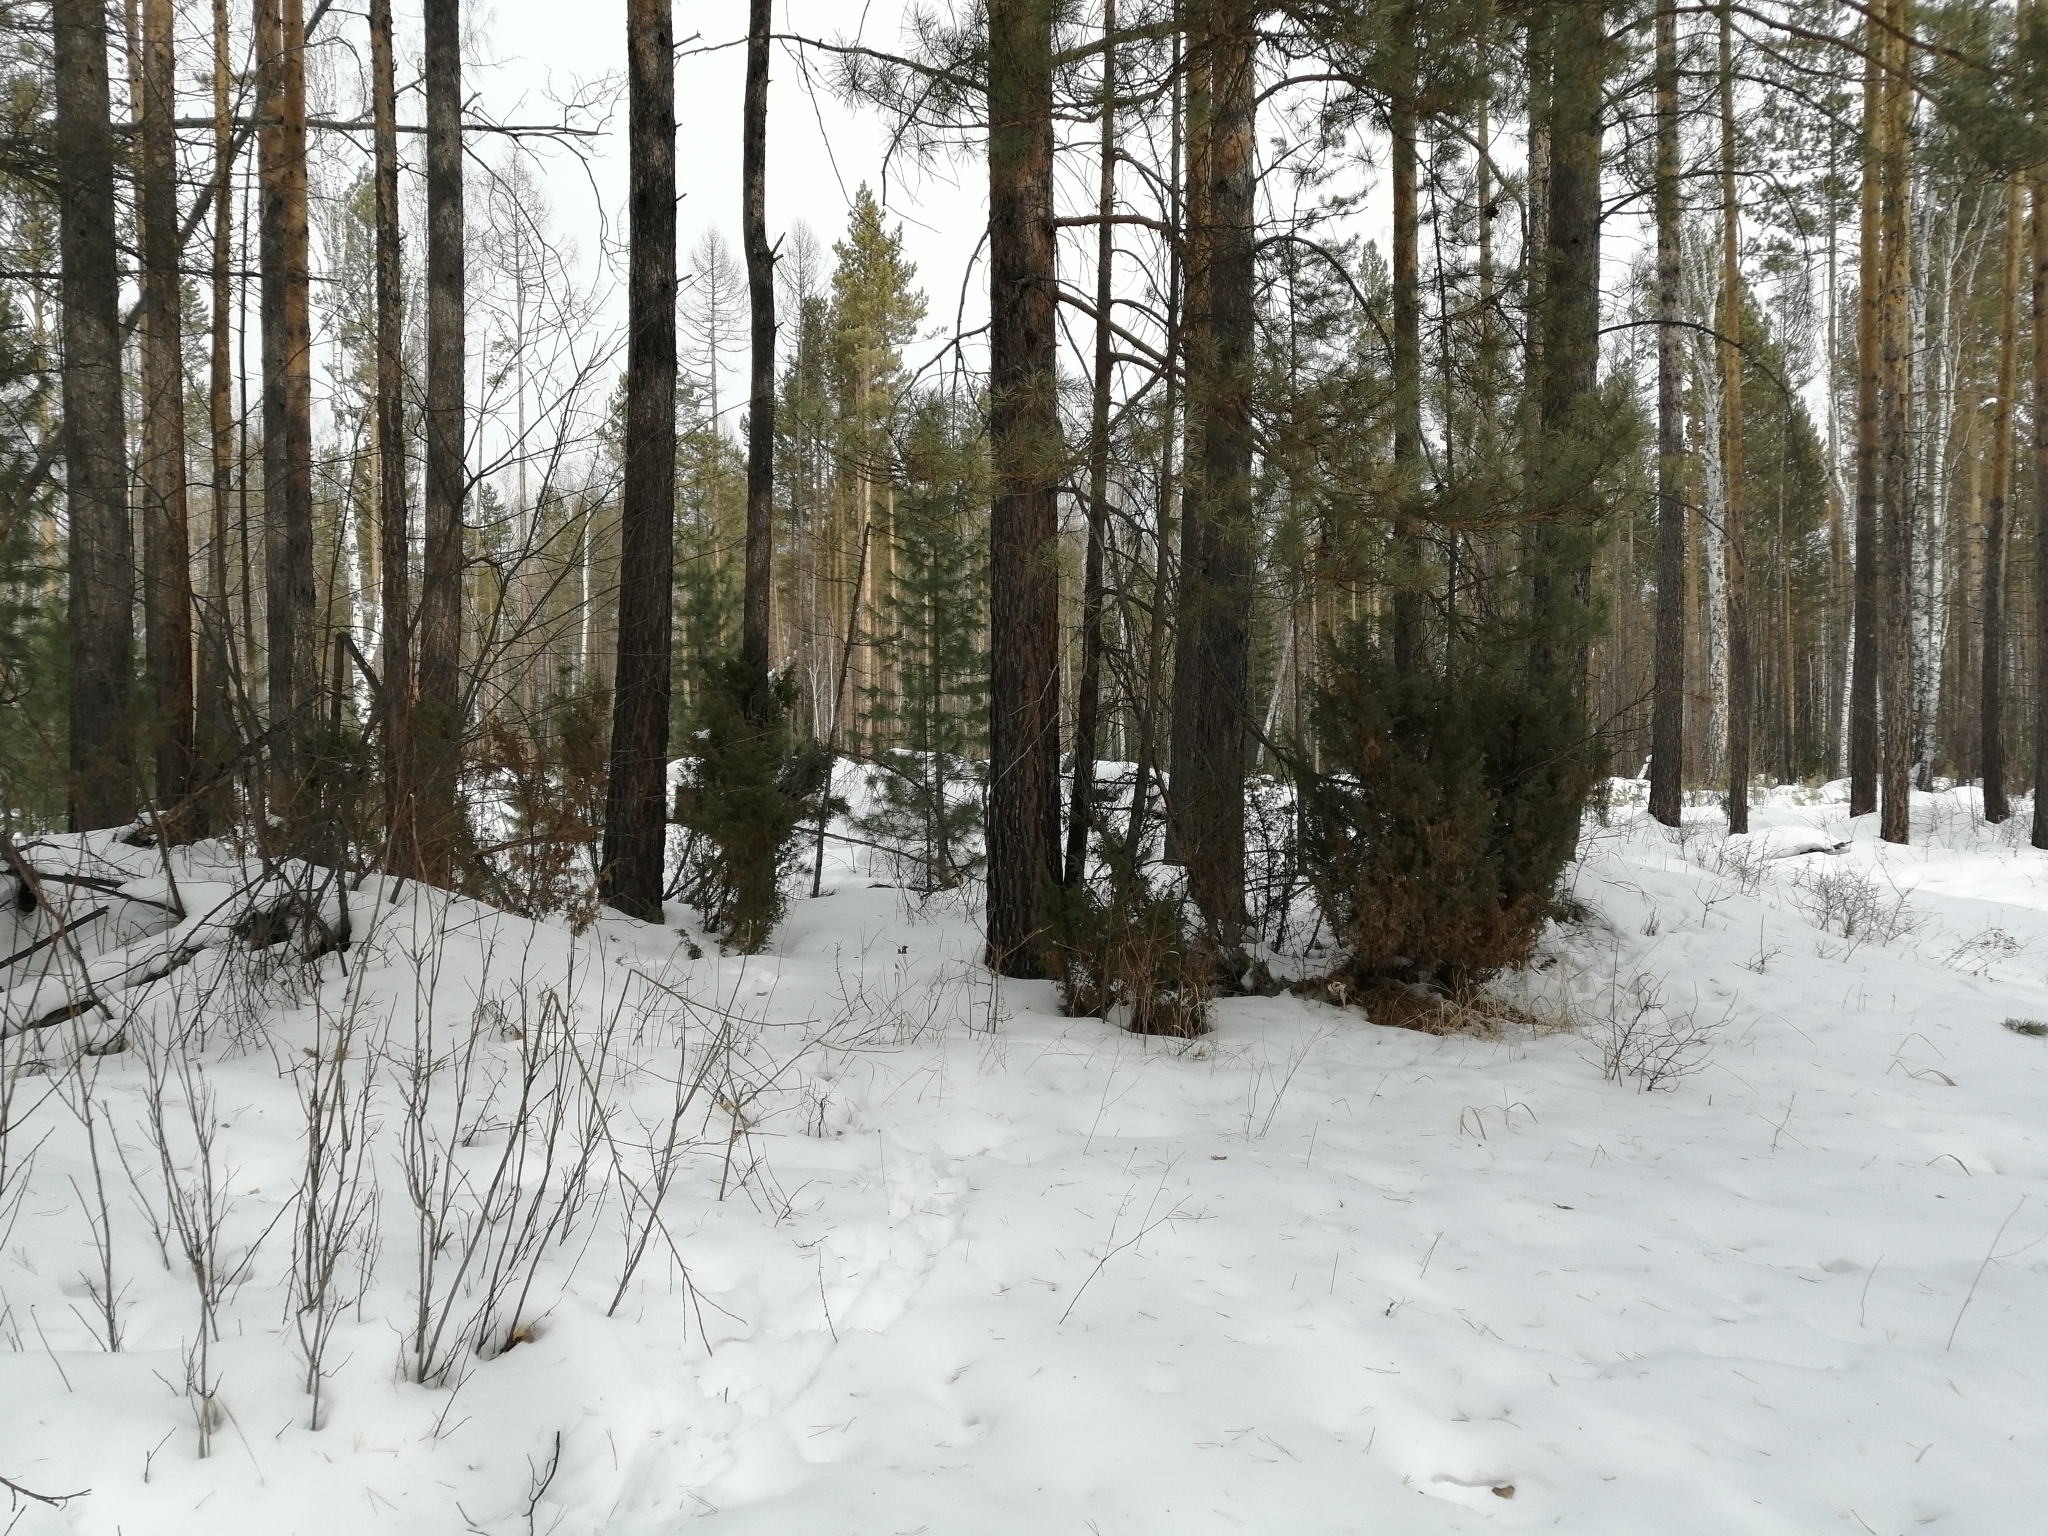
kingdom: Plantae
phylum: Tracheophyta
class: Pinopsida
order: Pinales
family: Pinaceae
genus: Pinus
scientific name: Pinus sibirica
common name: Siberian pine
